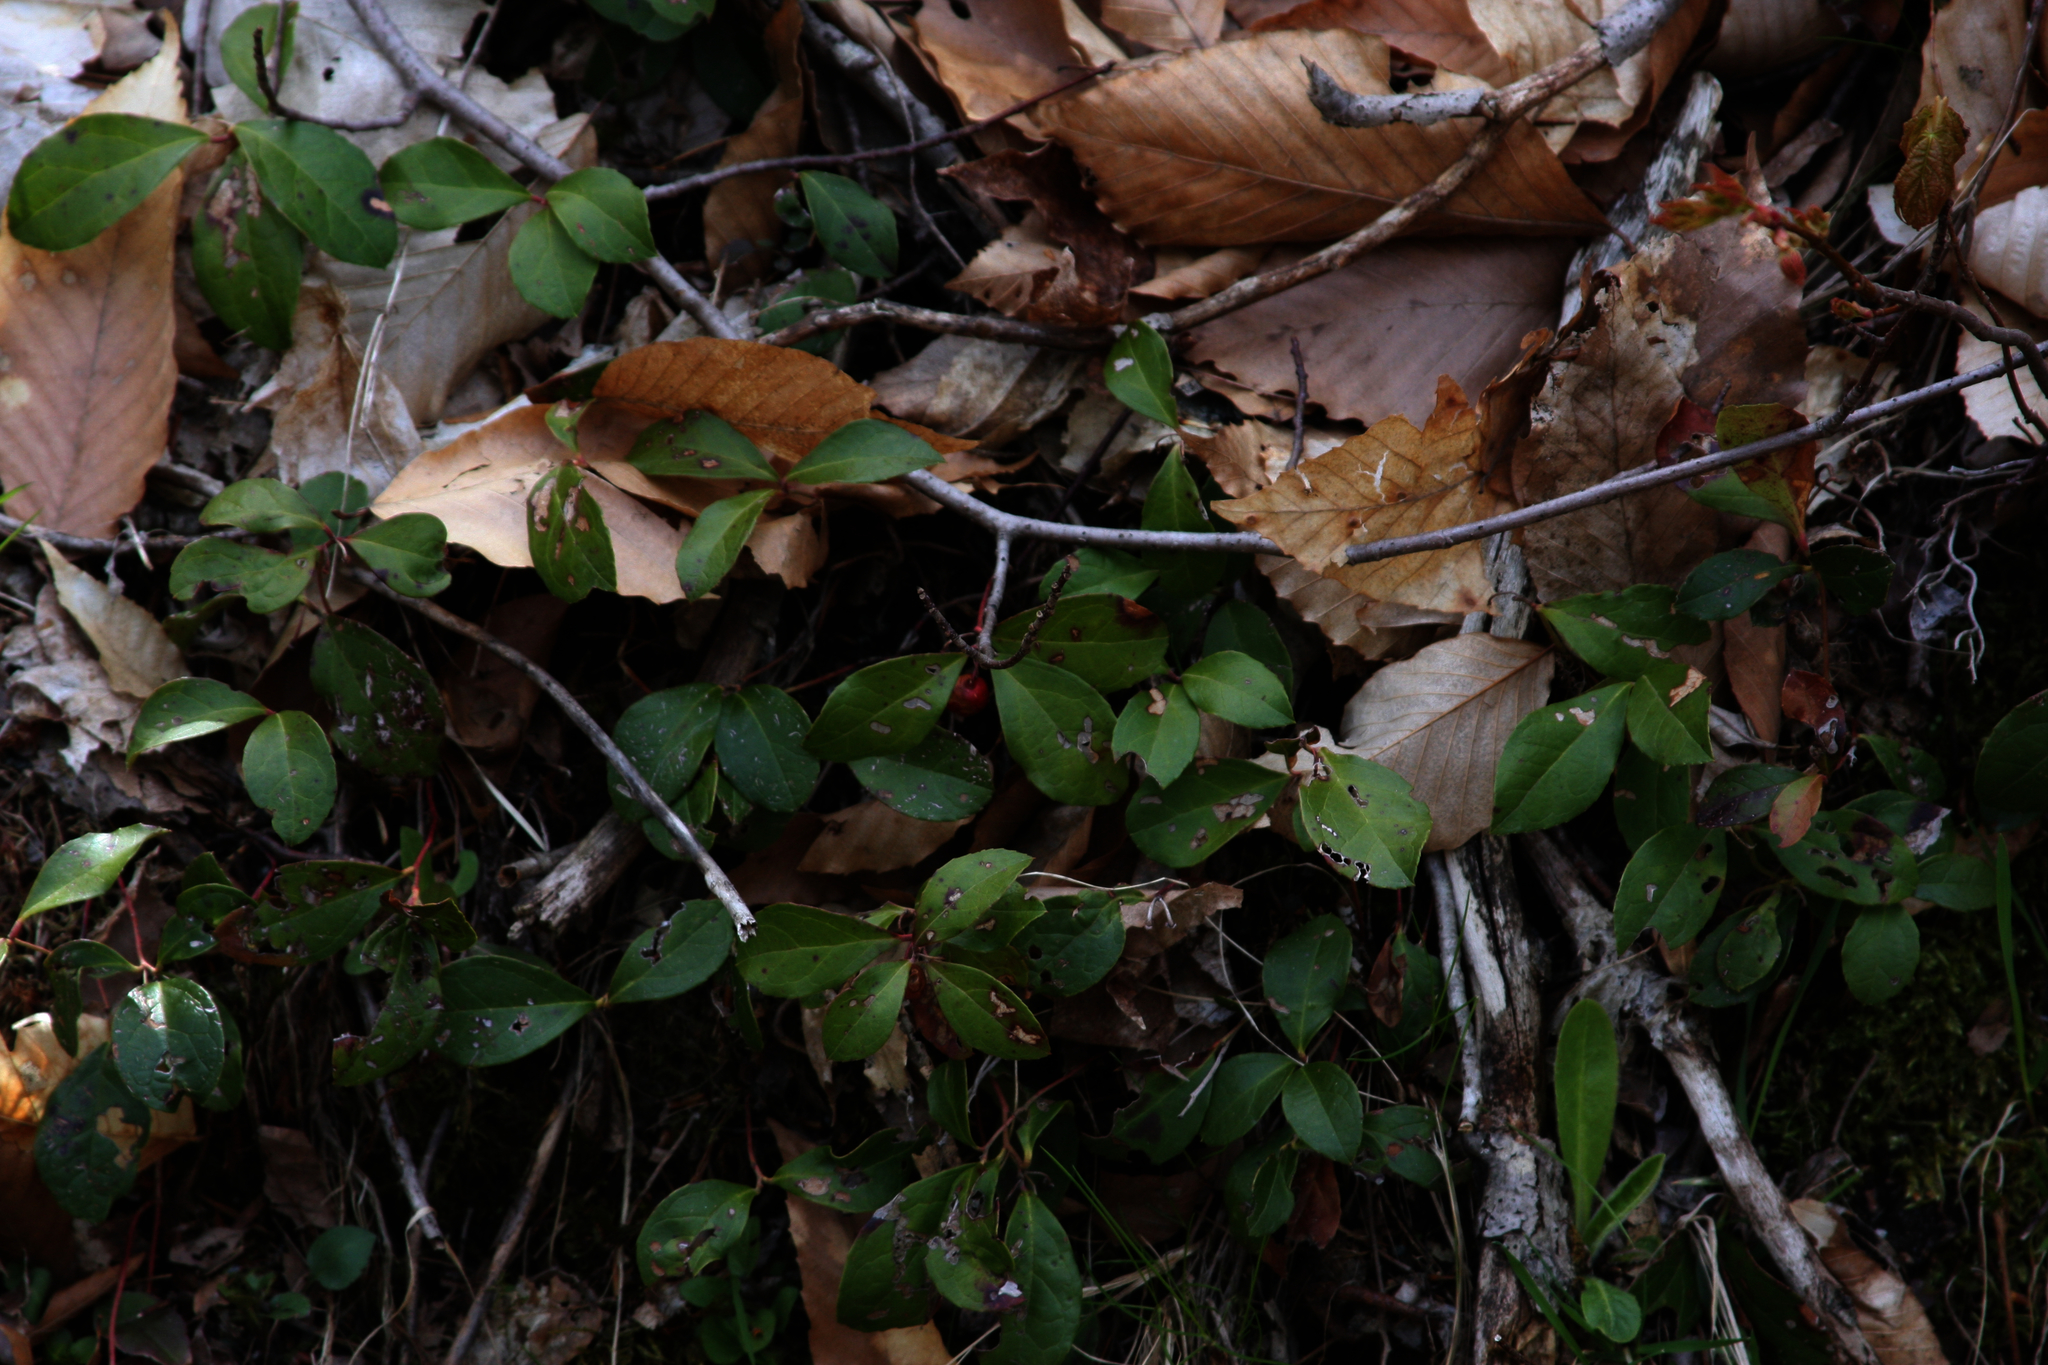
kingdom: Plantae
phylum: Tracheophyta
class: Magnoliopsida
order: Ericales
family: Ericaceae
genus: Gaultheria
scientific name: Gaultheria procumbens
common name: Checkerberry
